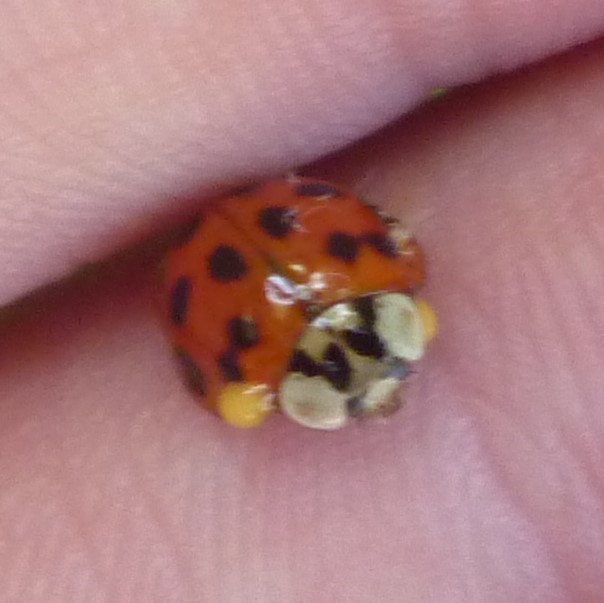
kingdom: Animalia
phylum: Arthropoda
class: Insecta
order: Coleoptera
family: Coccinellidae
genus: Harmonia
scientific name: Harmonia axyridis
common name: Harlequin ladybird
